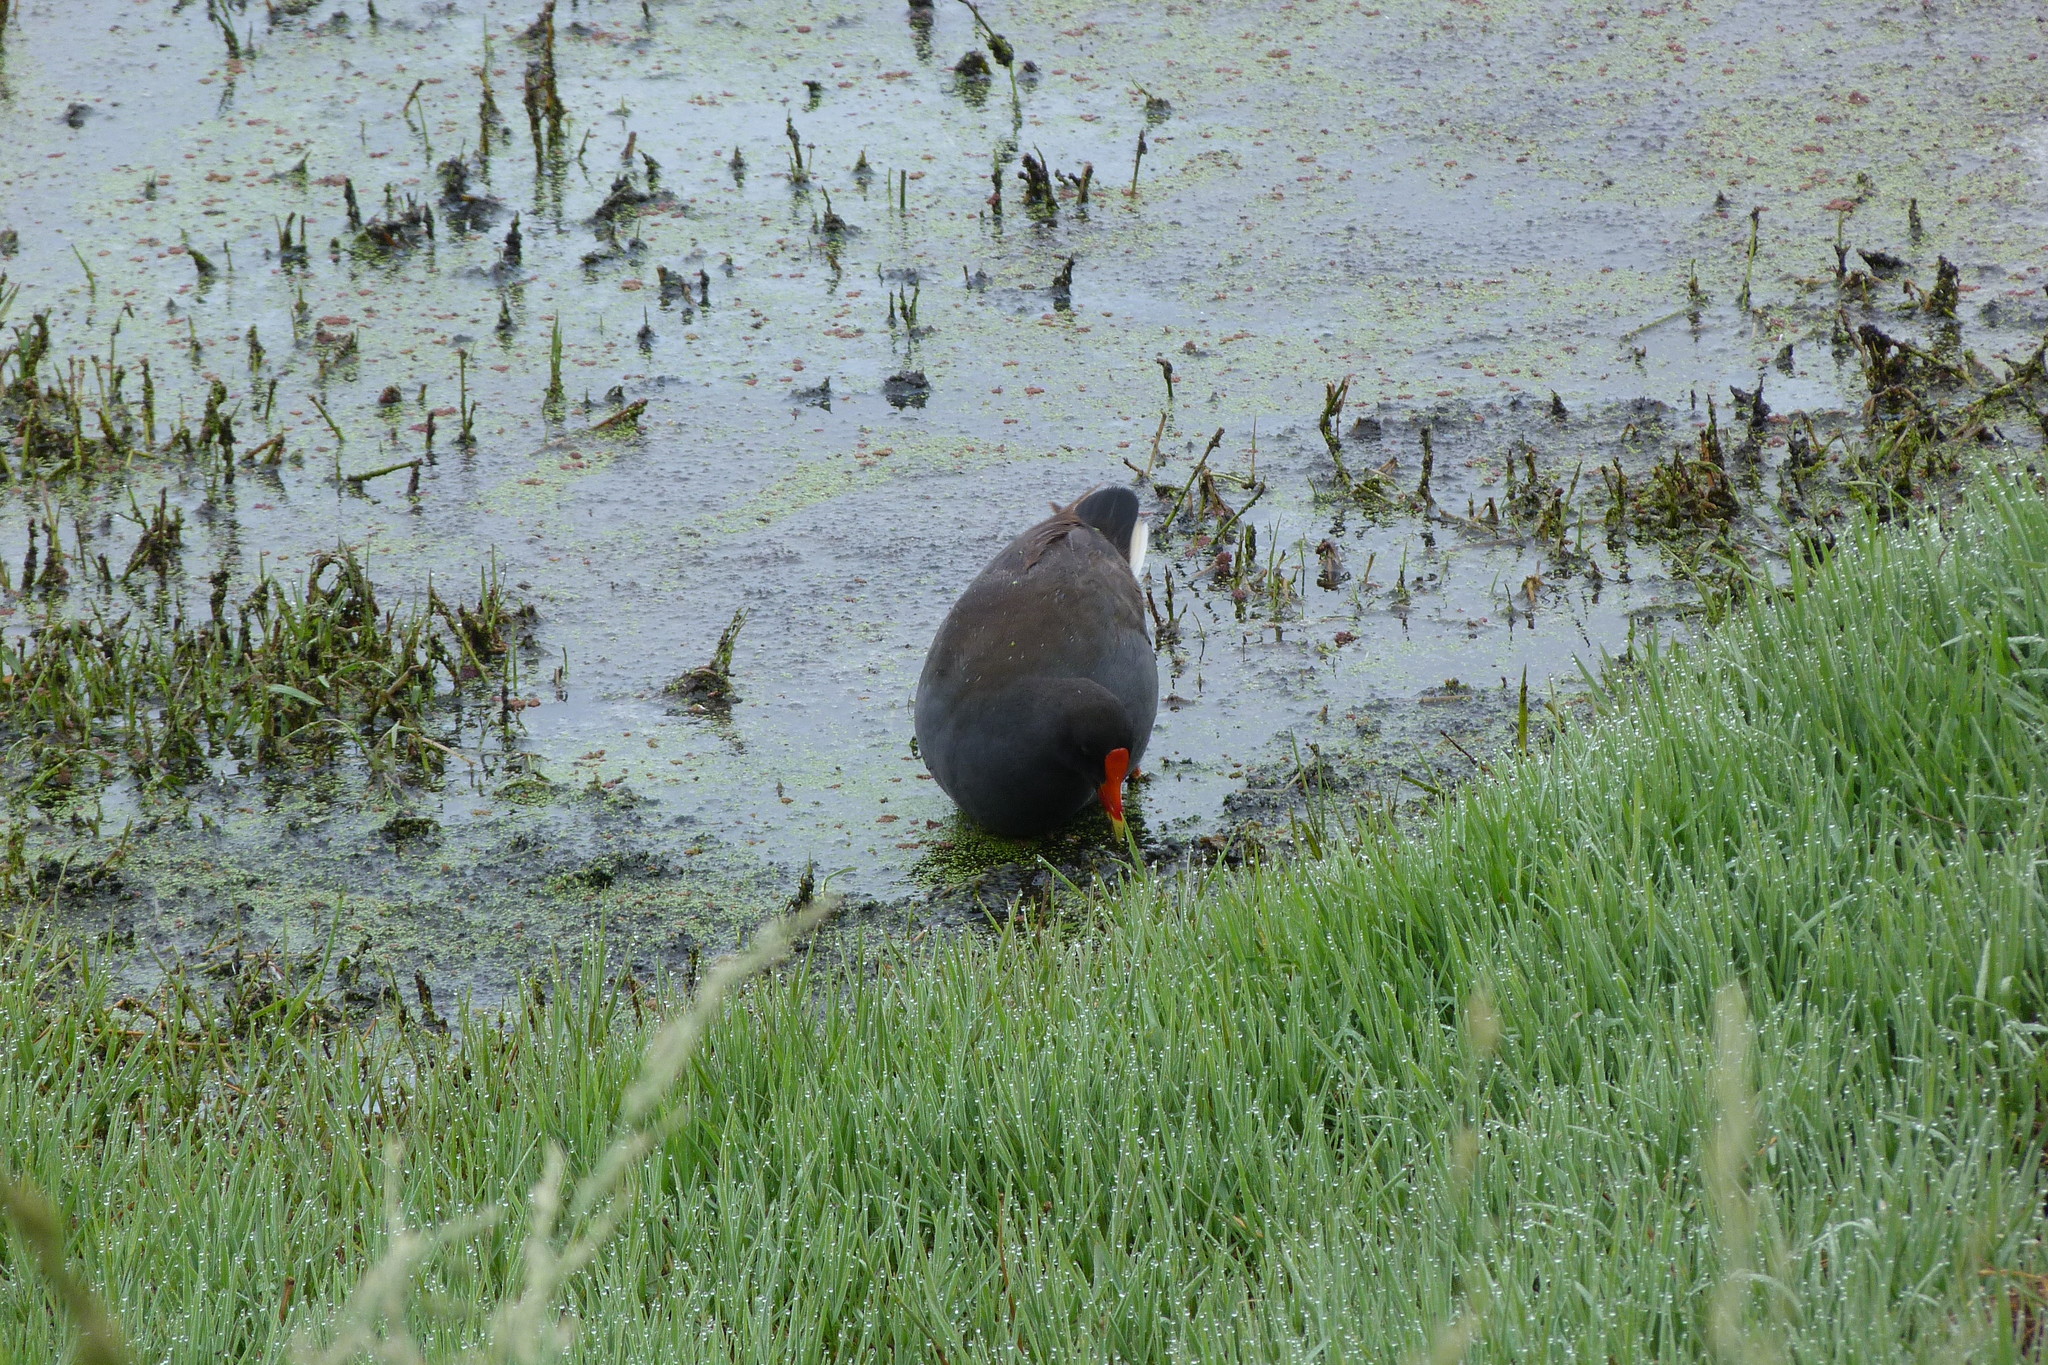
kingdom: Animalia
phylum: Chordata
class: Aves
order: Gruiformes
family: Rallidae
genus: Gallinula
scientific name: Gallinula tenebrosa
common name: Dusky moorhen
